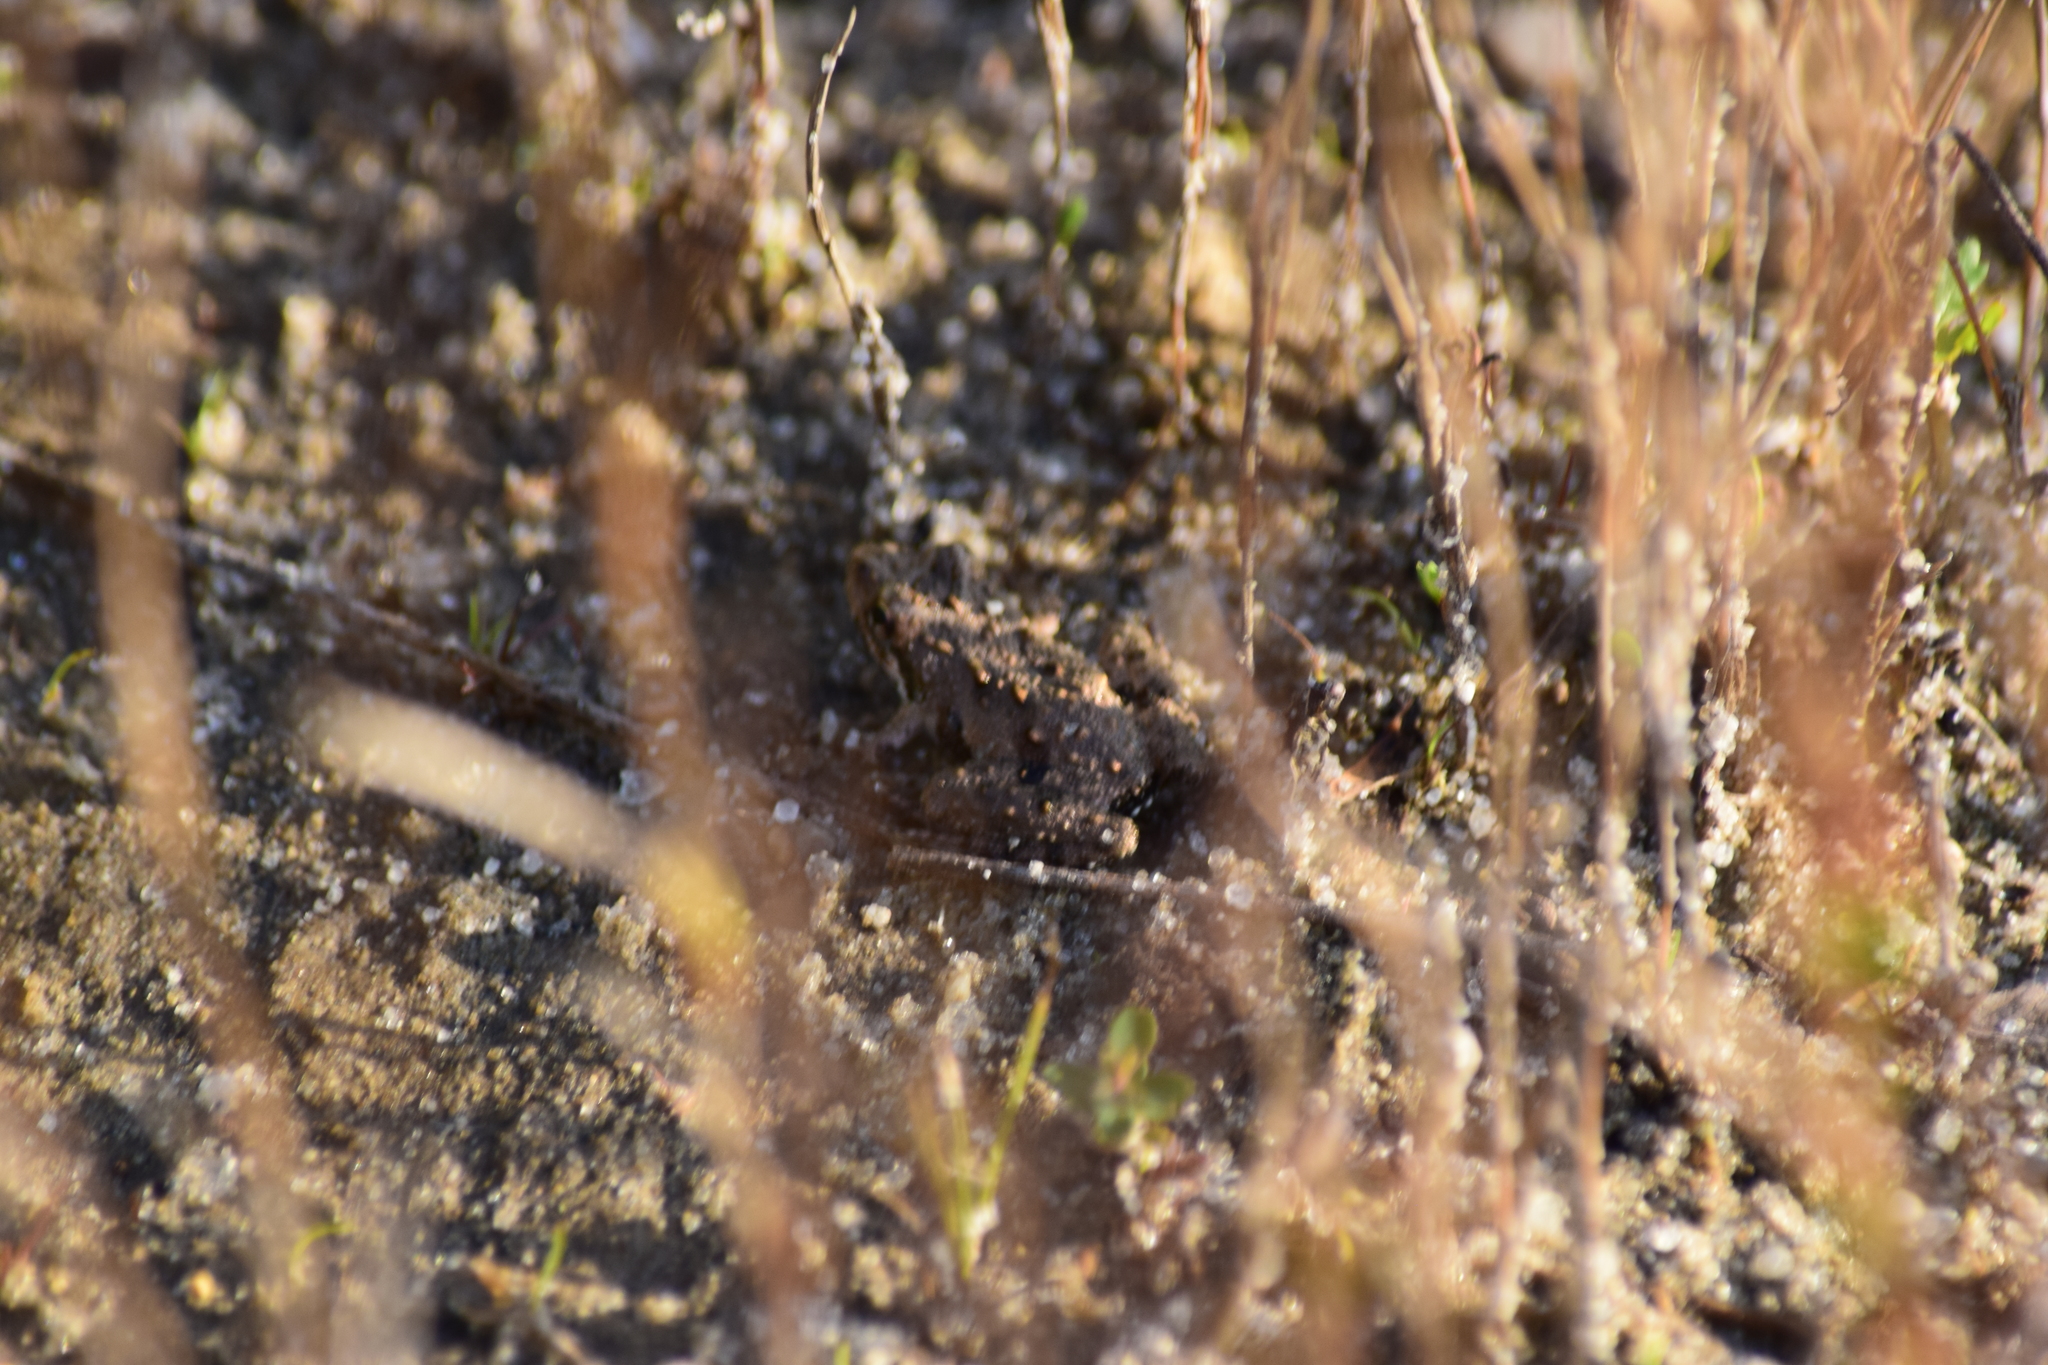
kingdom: Animalia
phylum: Chordata
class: Amphibia
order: Anura
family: Hylidae
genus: Acris
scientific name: Acris crepitans
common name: Northern cricket frog
